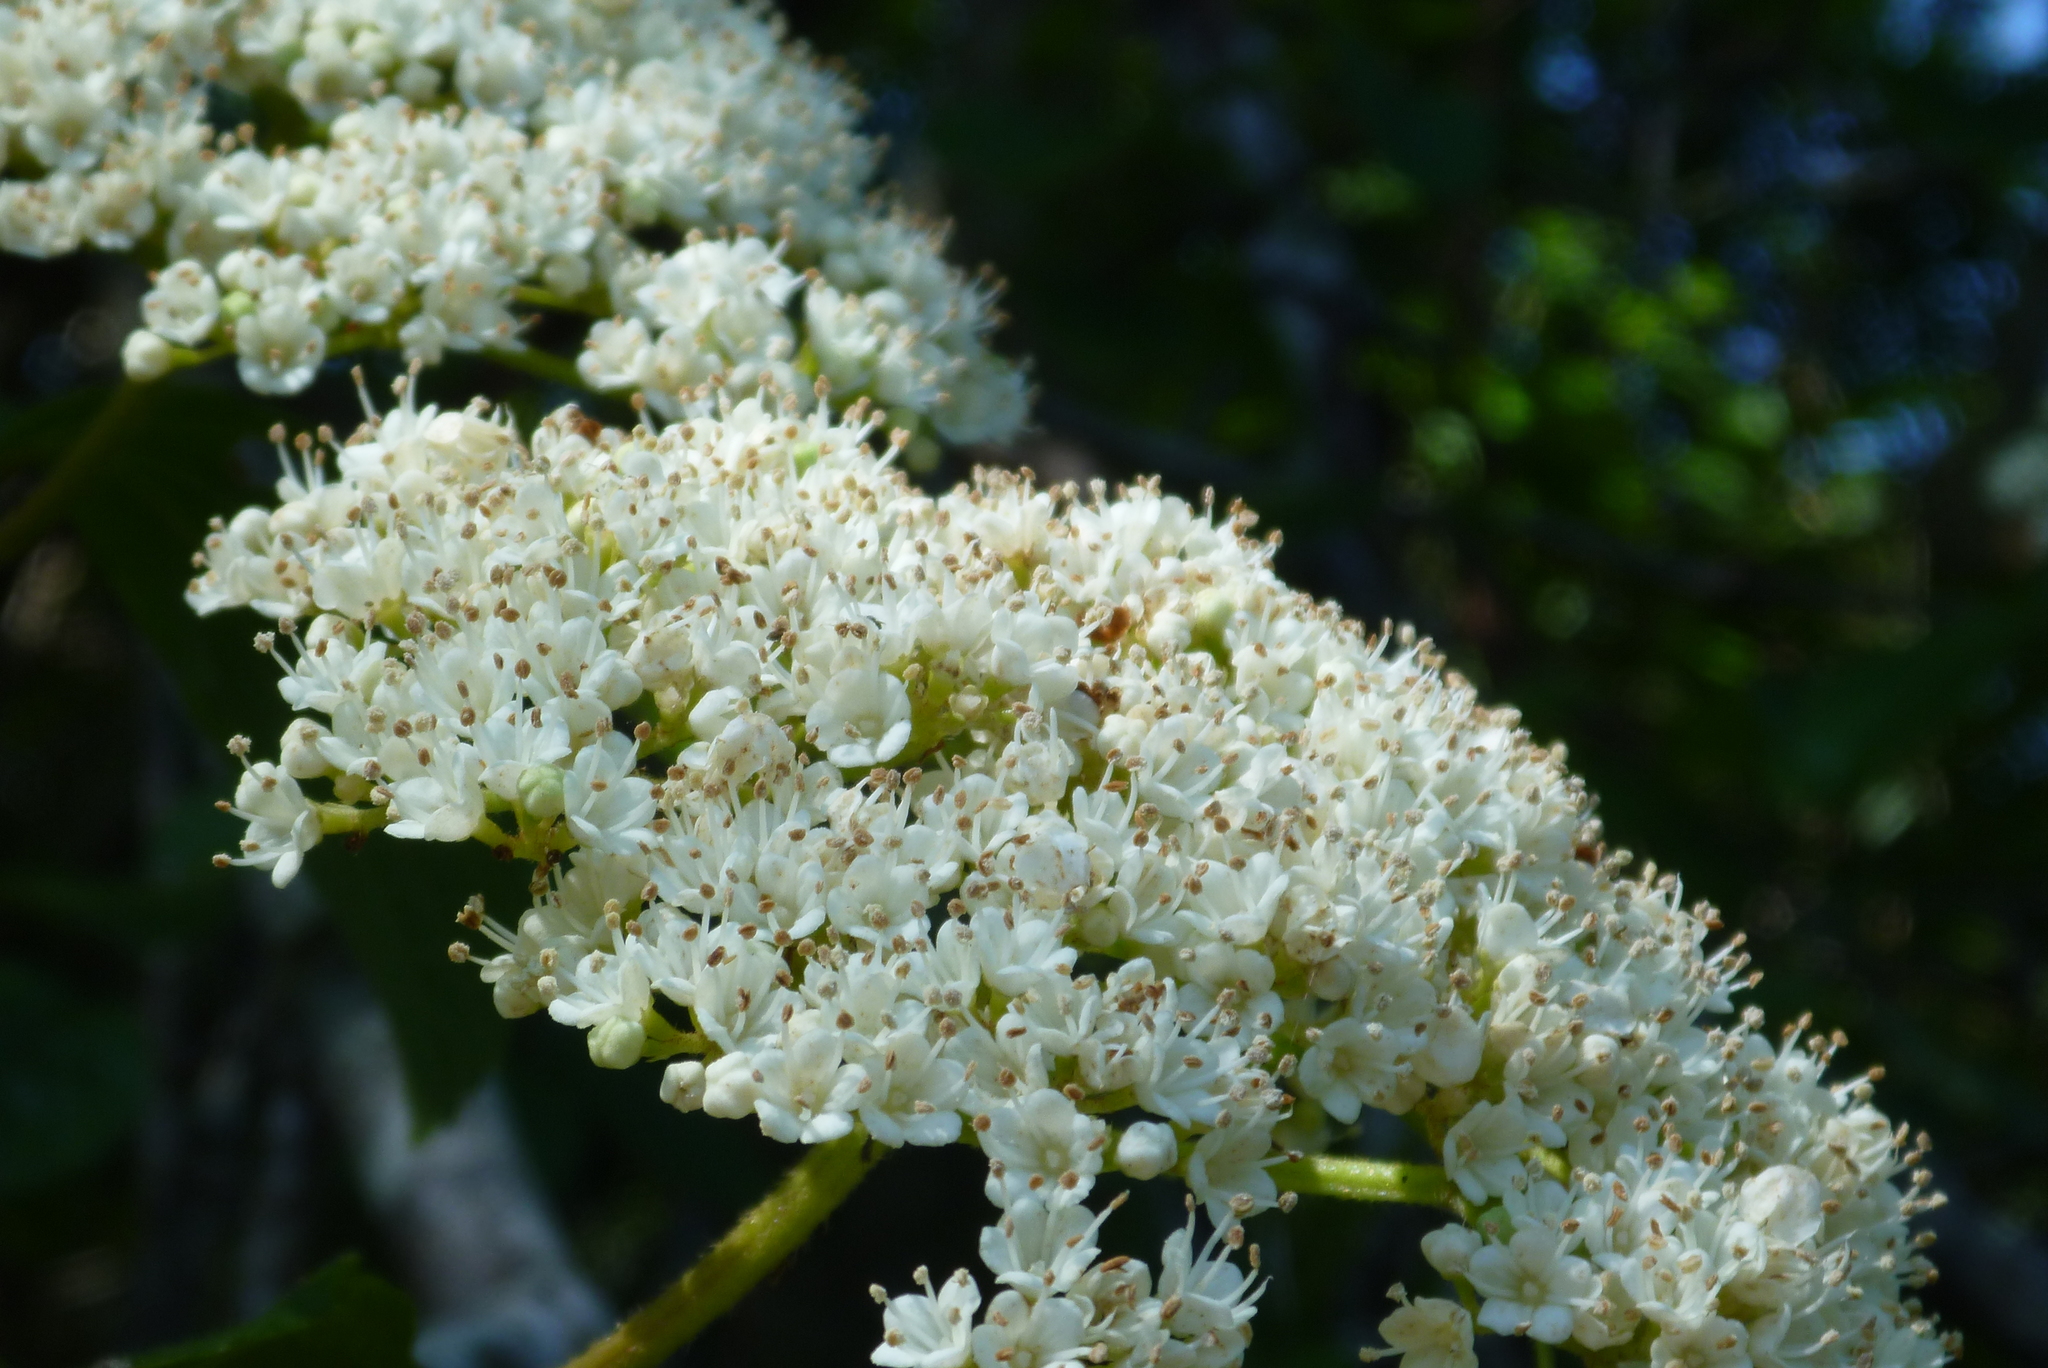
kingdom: Plantae
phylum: Tracheophyta
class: Magnoliopsida
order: Dipsacales
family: Viburnaceae
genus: Viburnum
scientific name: Viburnum scabrellum
